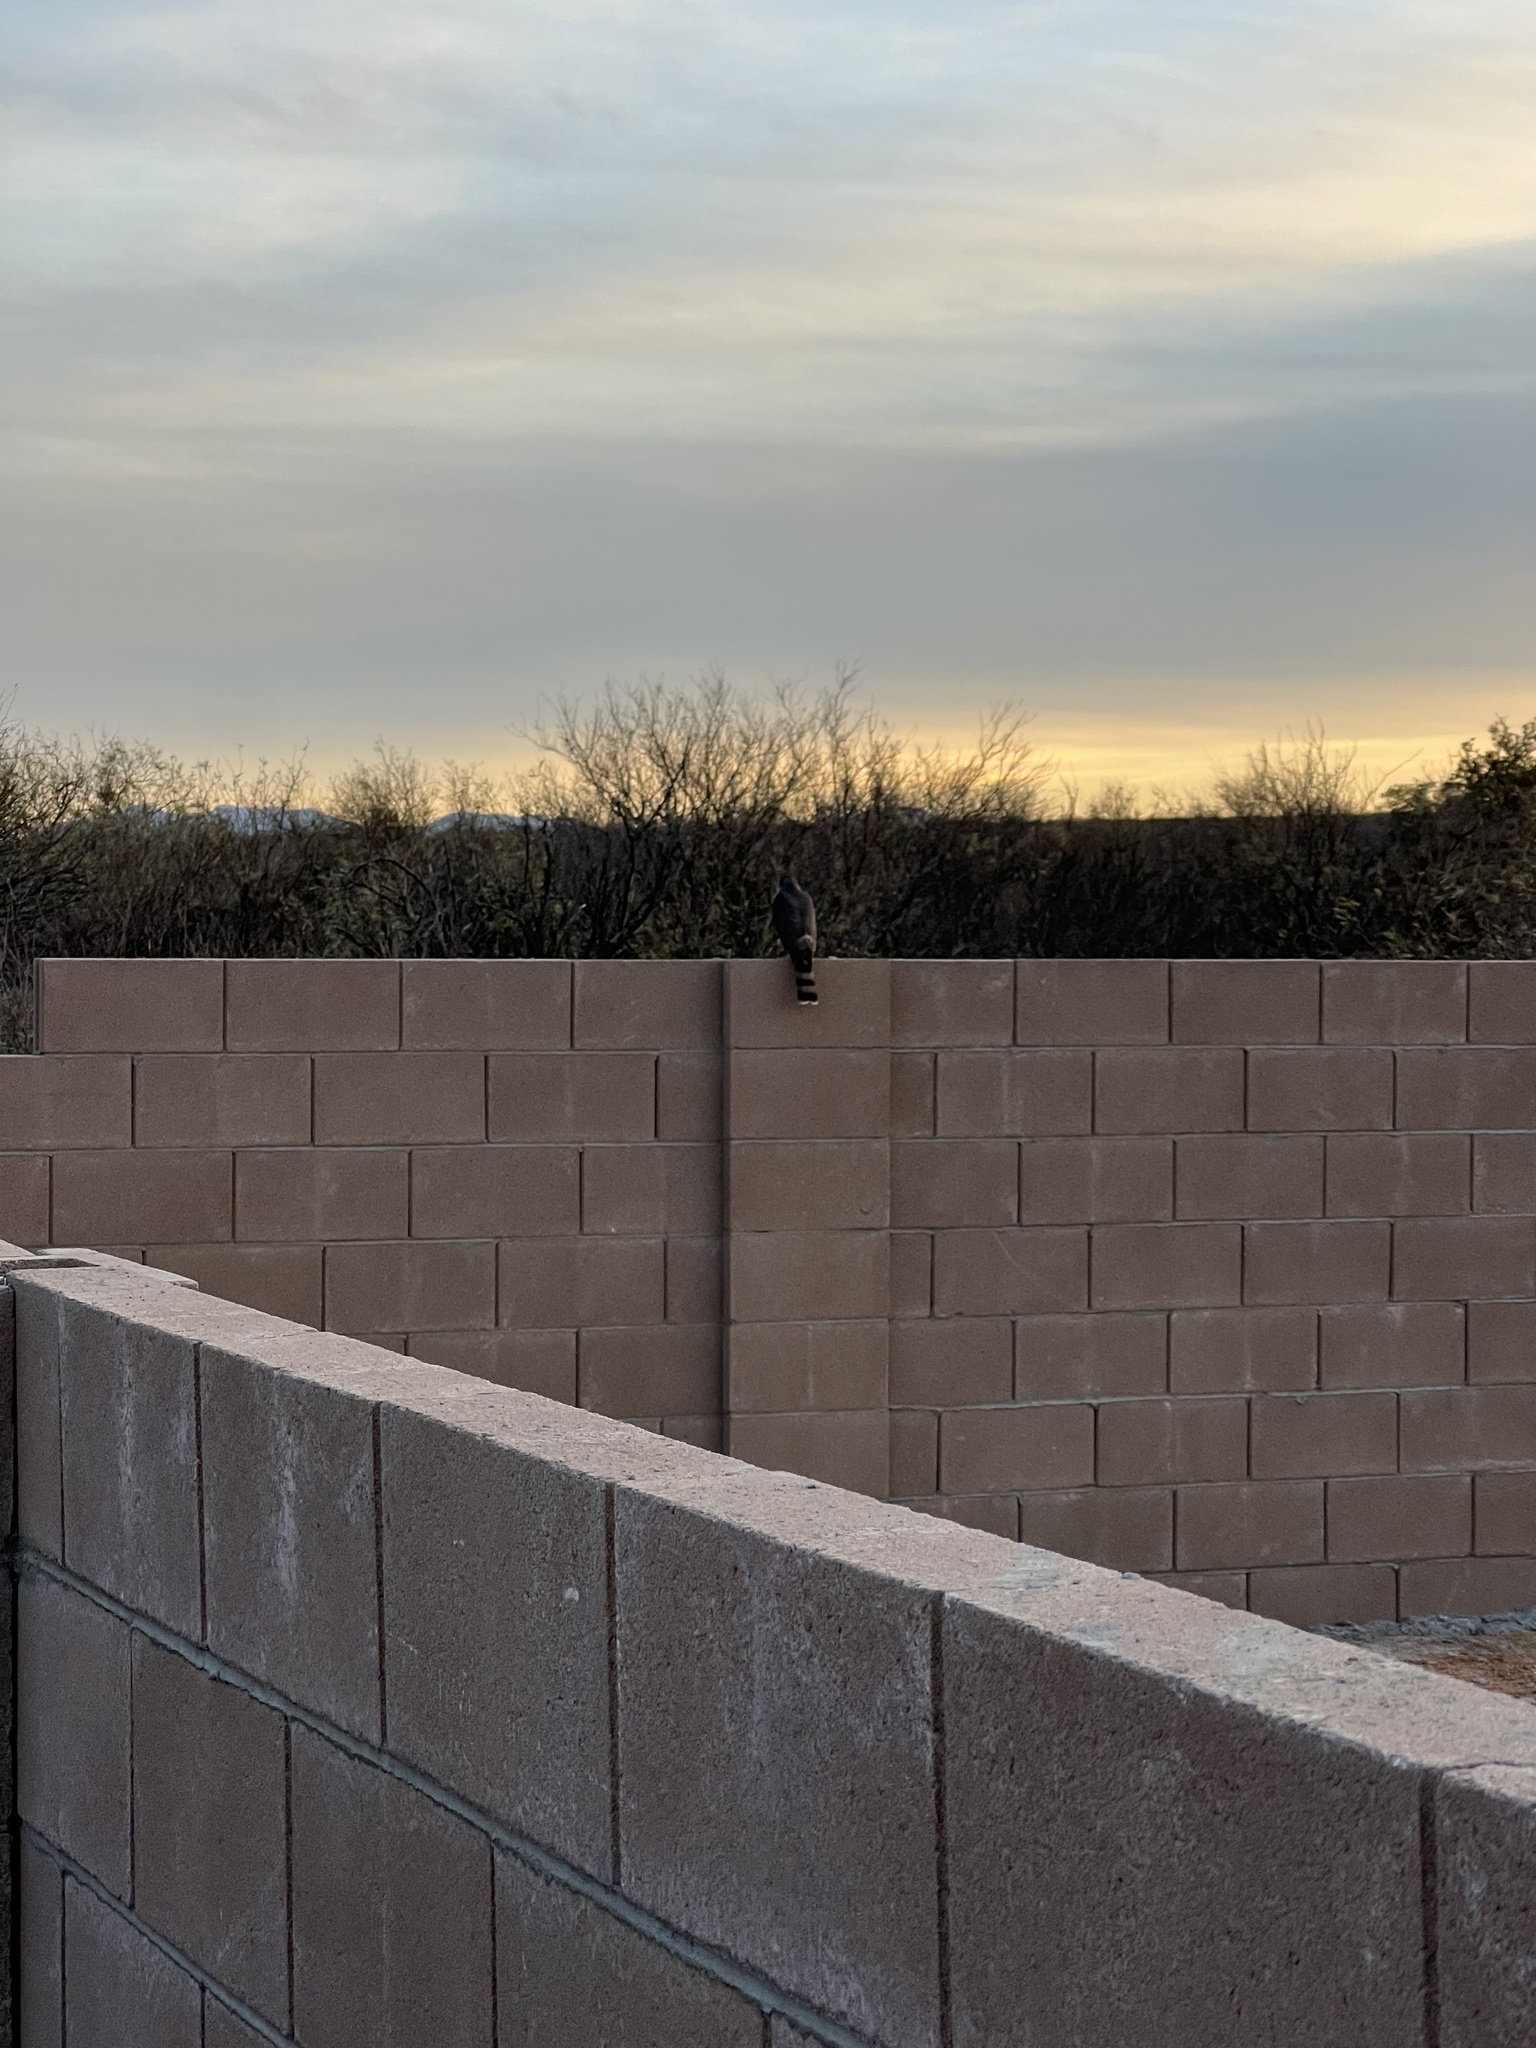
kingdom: Animalia
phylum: Chordata
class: Aves
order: Accipitriformes
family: Accipitridae
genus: Accipiter
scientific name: Accipiter striatus
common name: Sharp-shinned hawk
